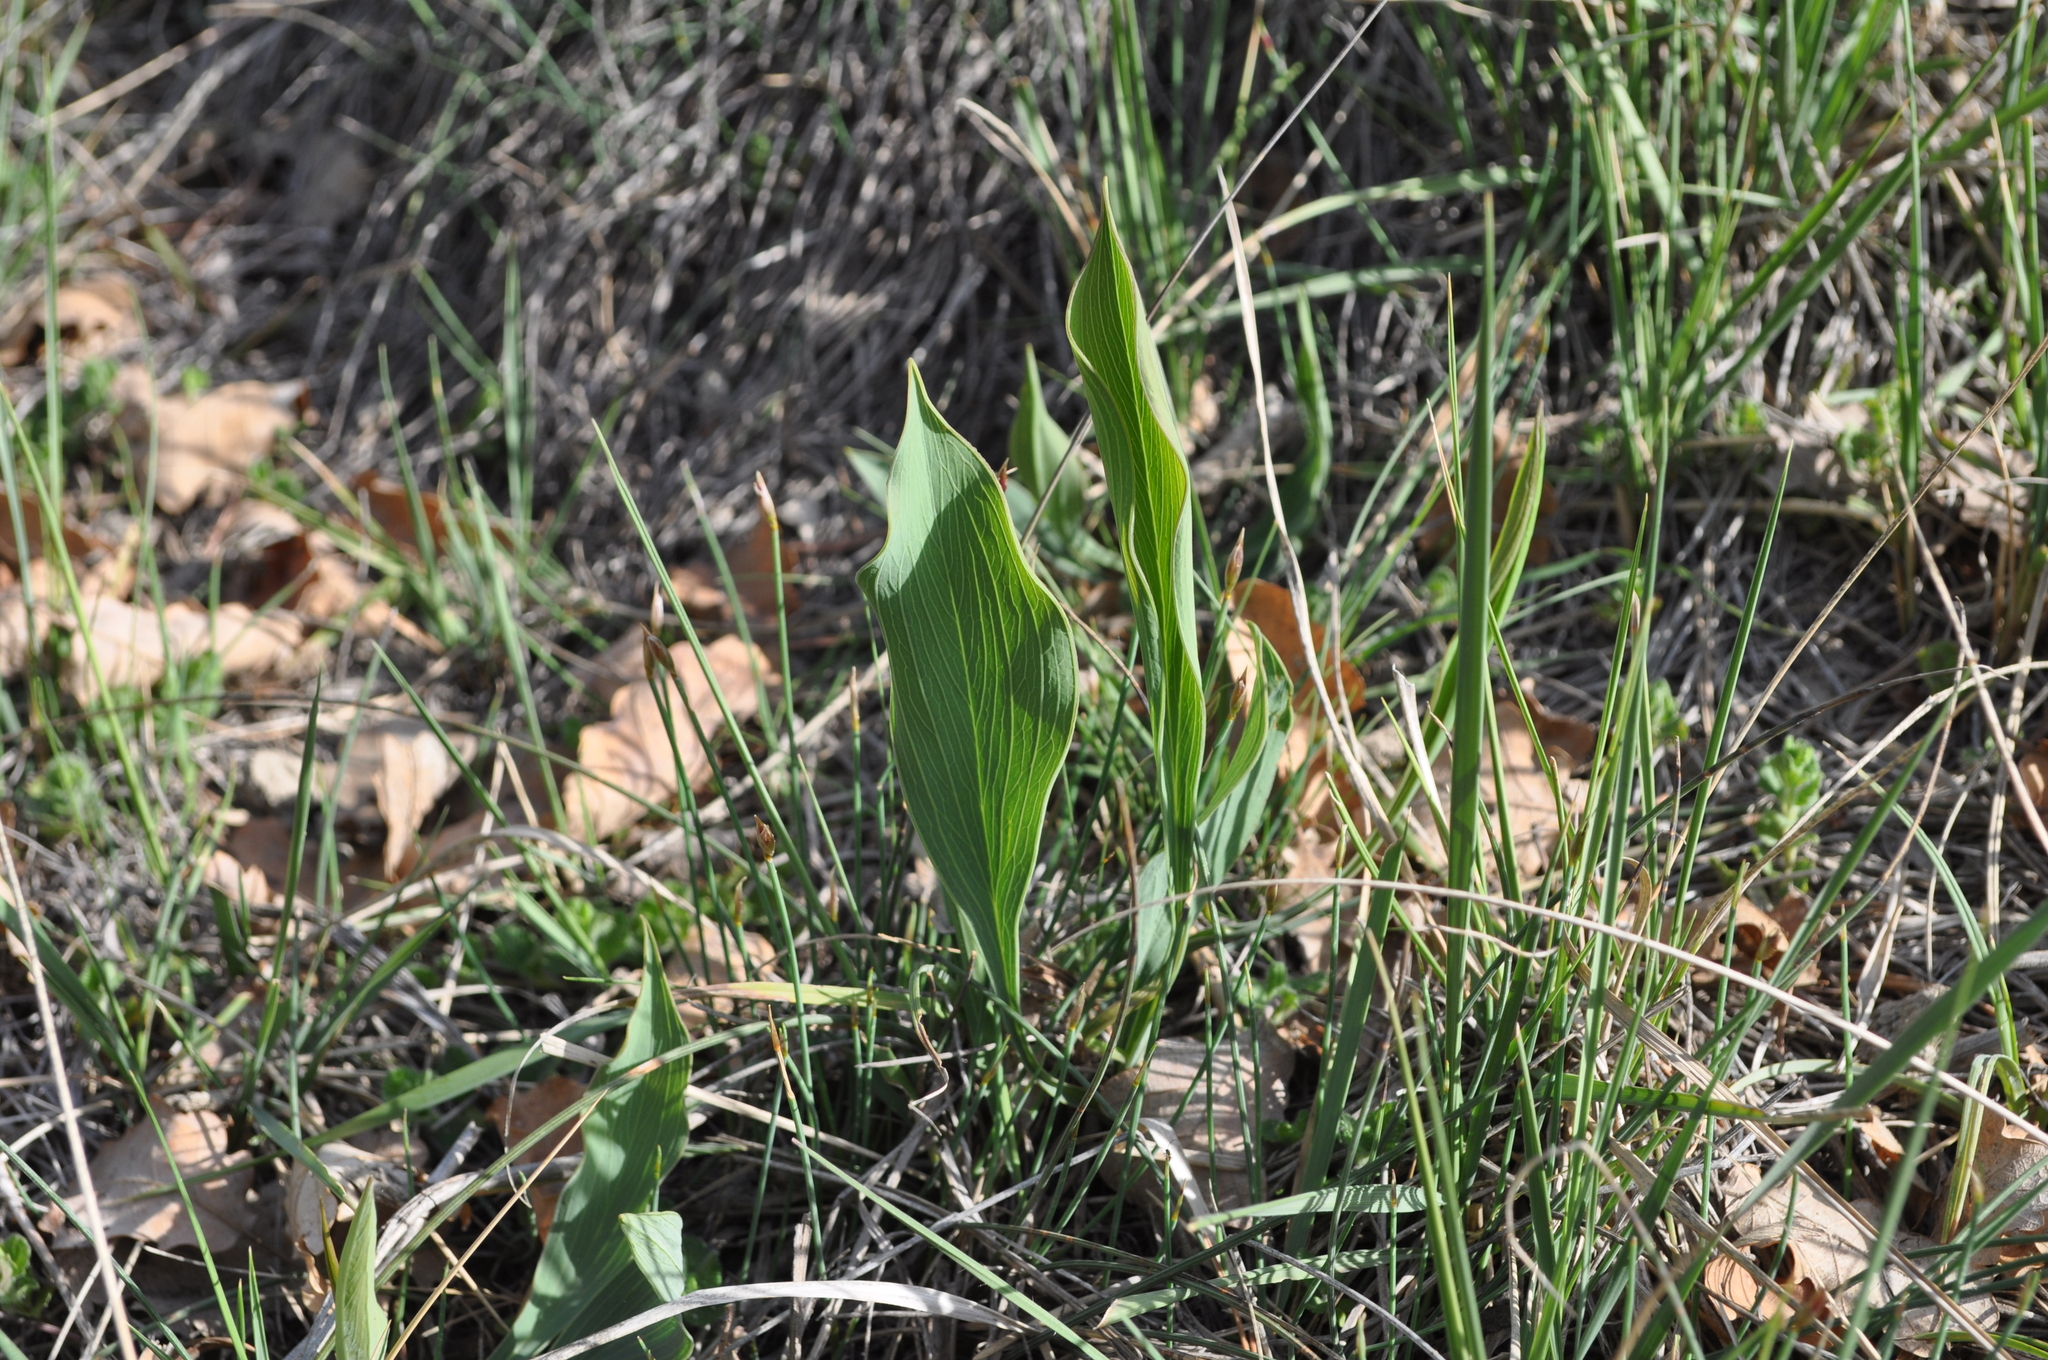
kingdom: Plantae
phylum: Tracheophyta
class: Magnoliopsida
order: Apiales
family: Apiaceae
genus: Bupleurum
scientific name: Bupleurum rigidum
